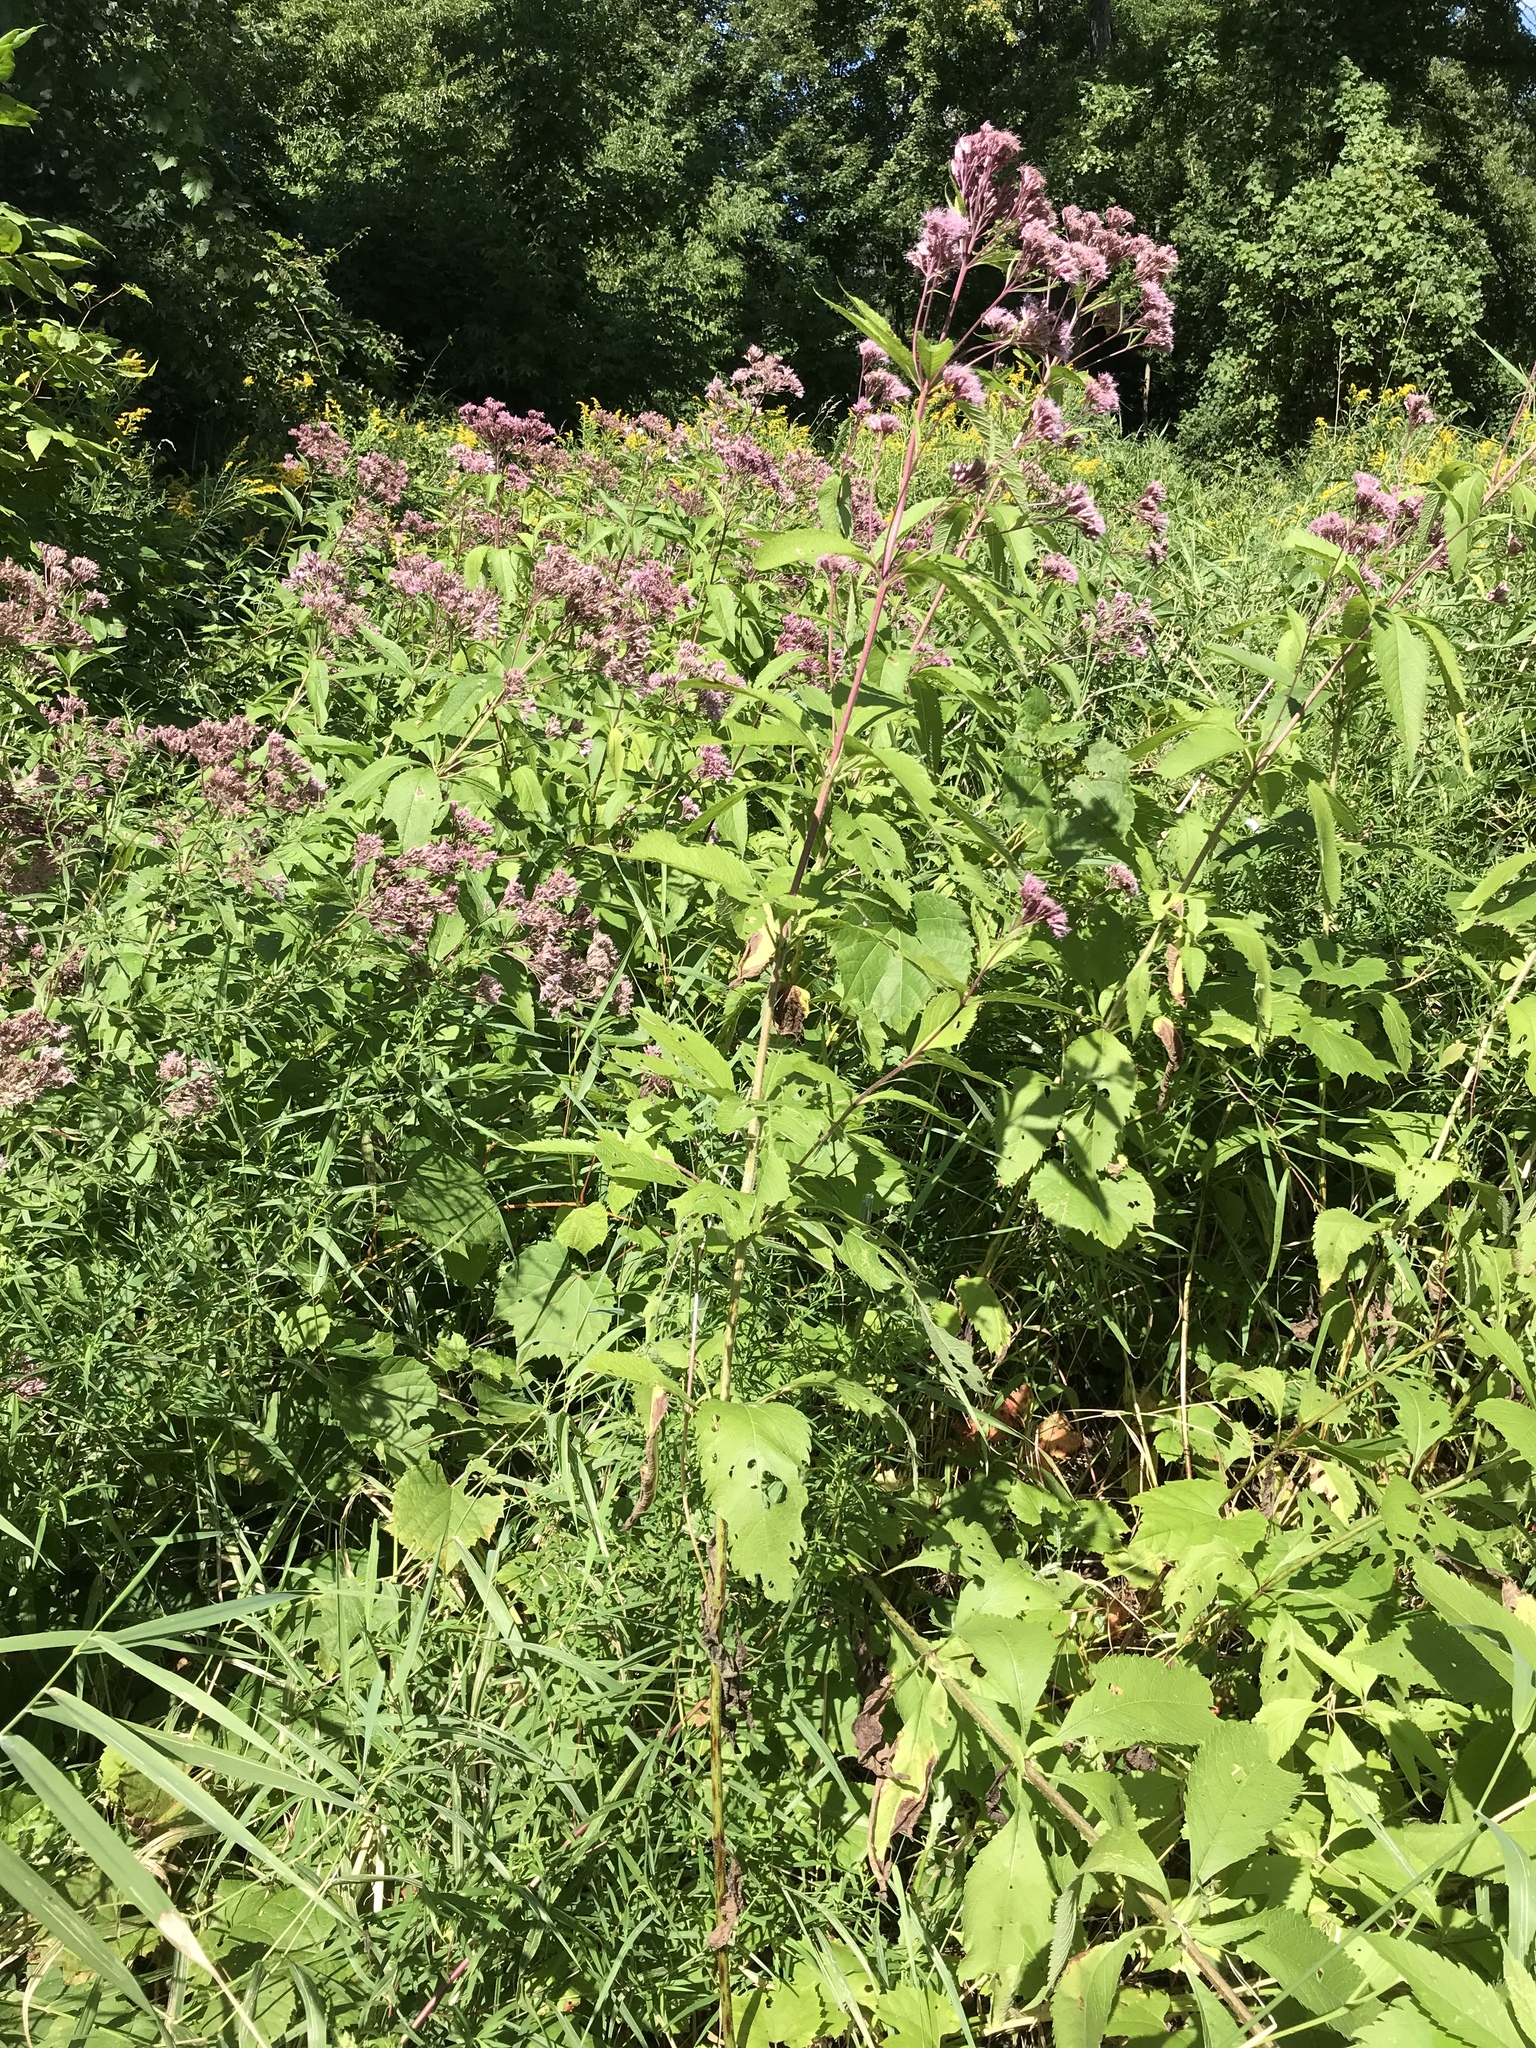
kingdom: Plantae
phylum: Tracheophyta
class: Magnoliopsida
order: Asterales
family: Asteraceae
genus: Eutrochium
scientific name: Eutrochium maculatum
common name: Spotted joe pye weed
